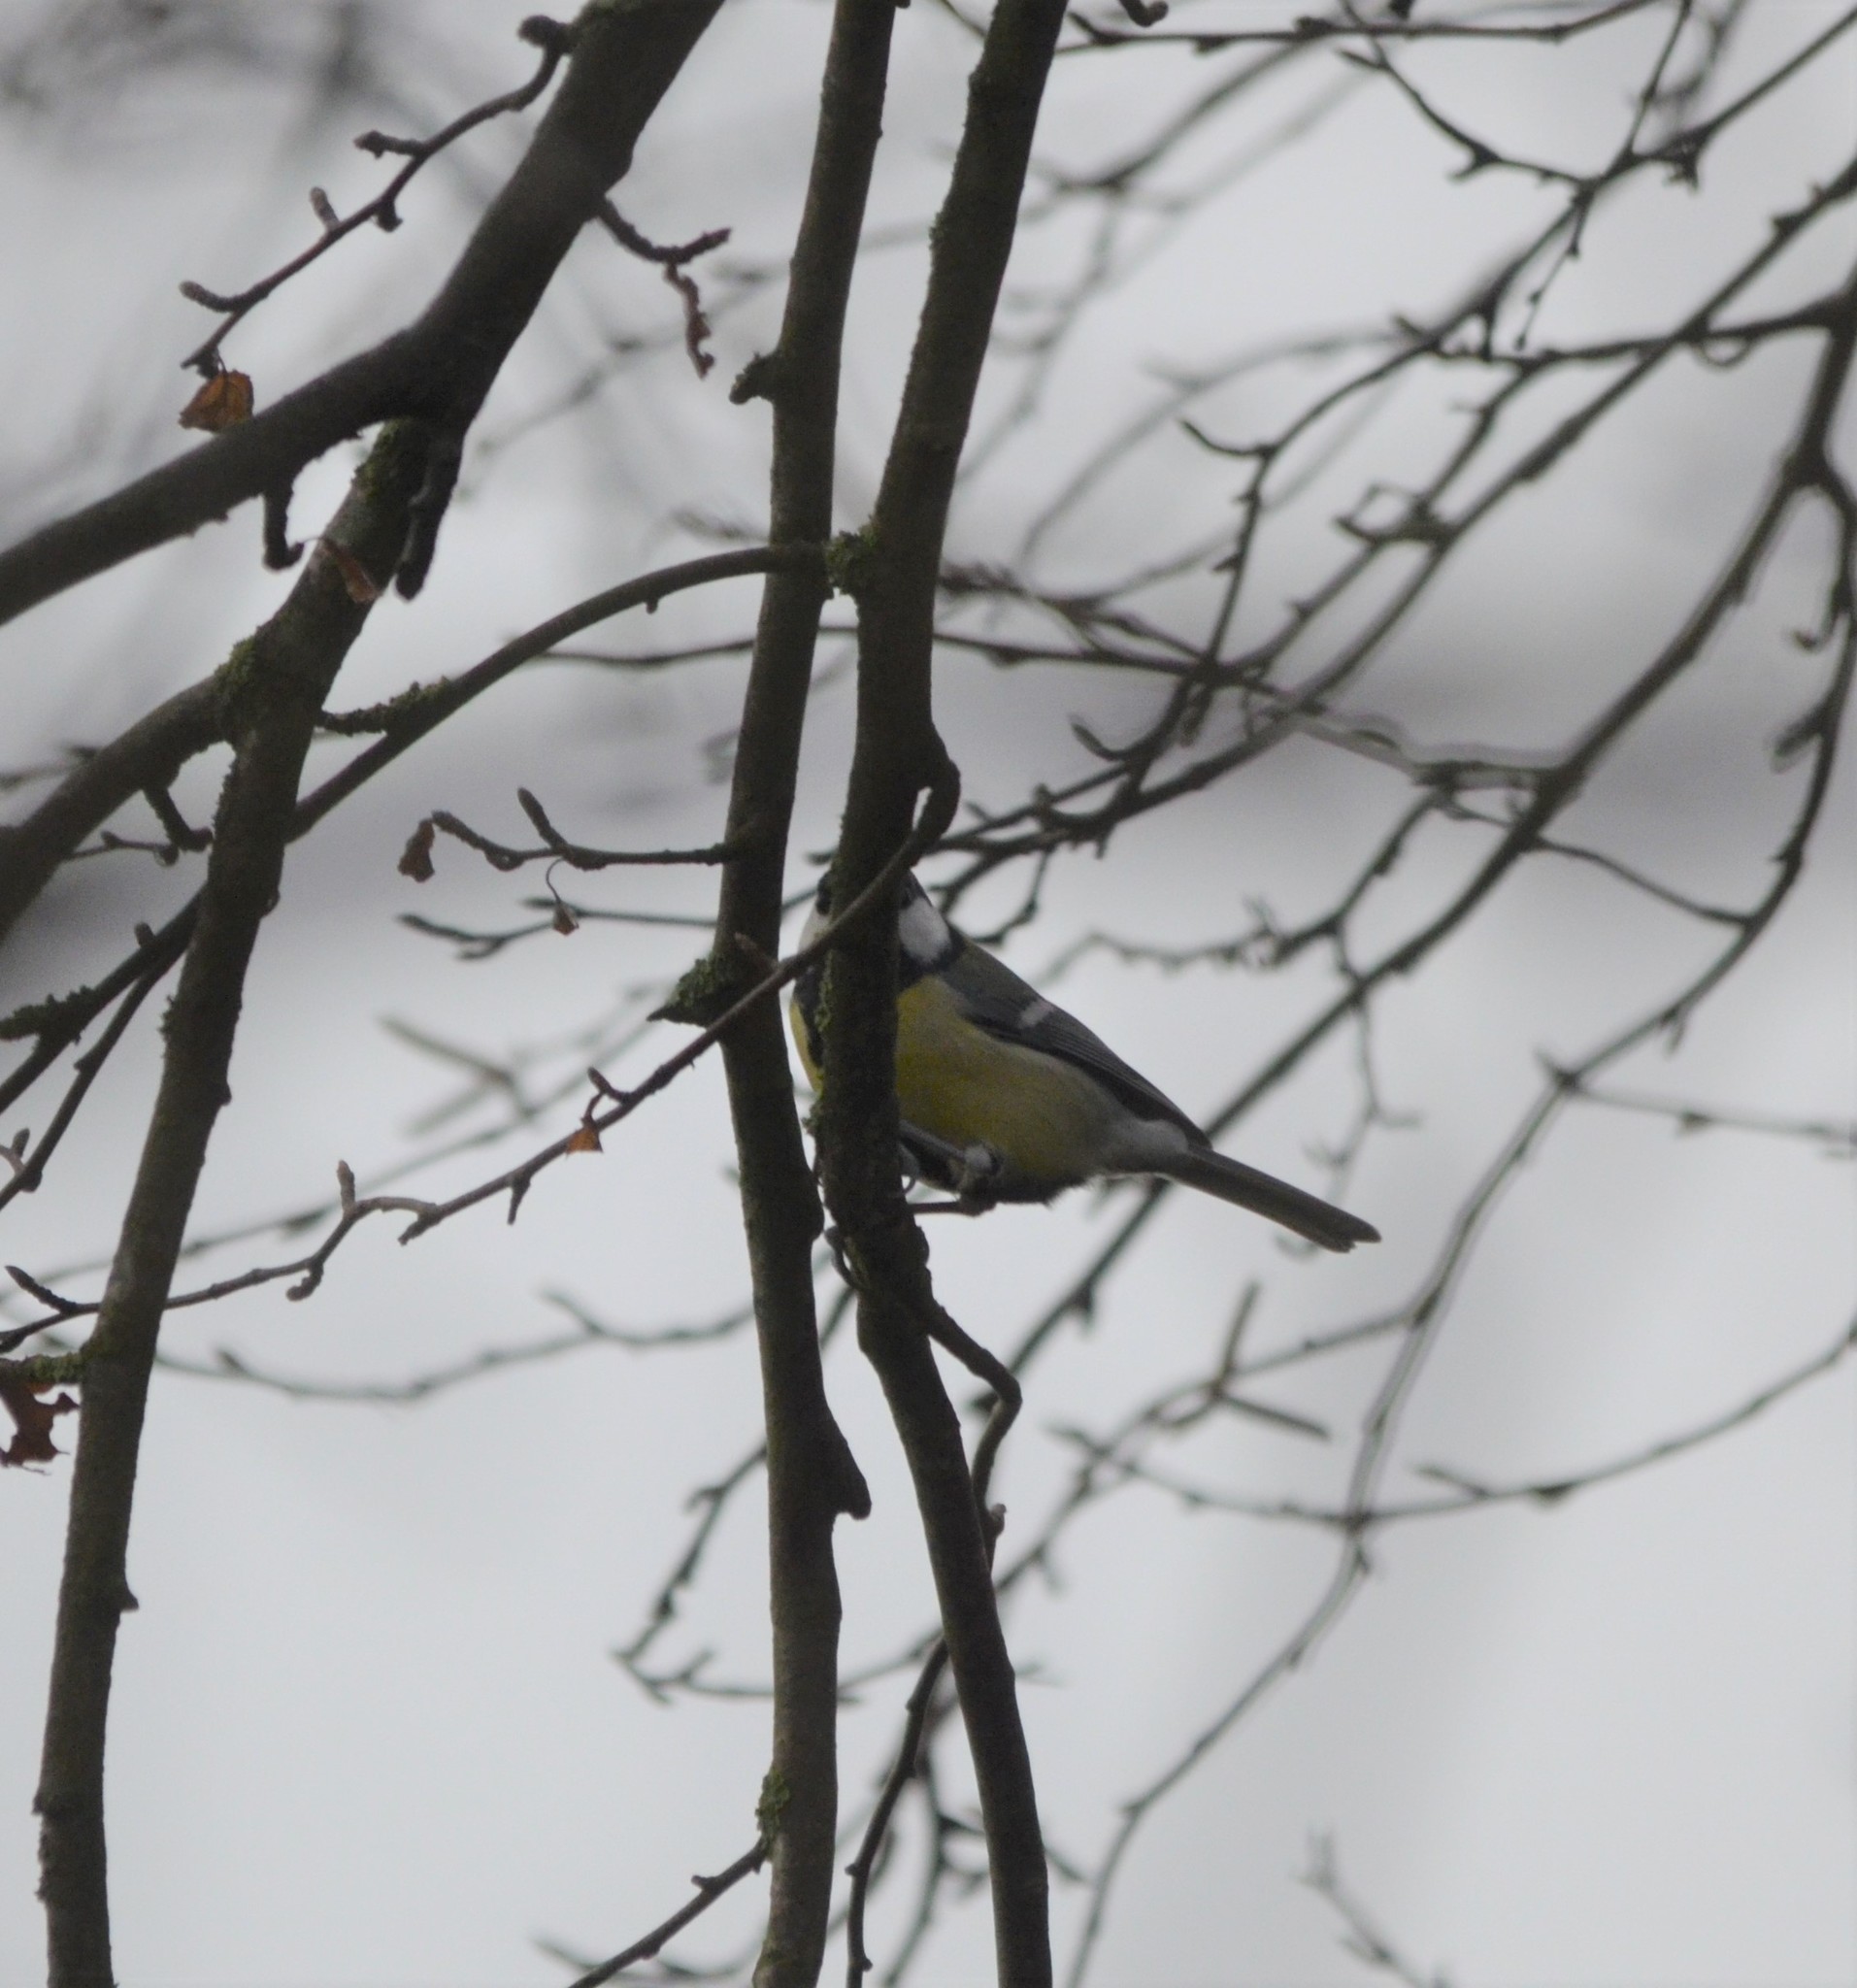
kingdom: Animalia
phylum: Chordata
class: Aves
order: Passeriformes
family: Paridae
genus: Parus
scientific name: Parus major
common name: Great tit
